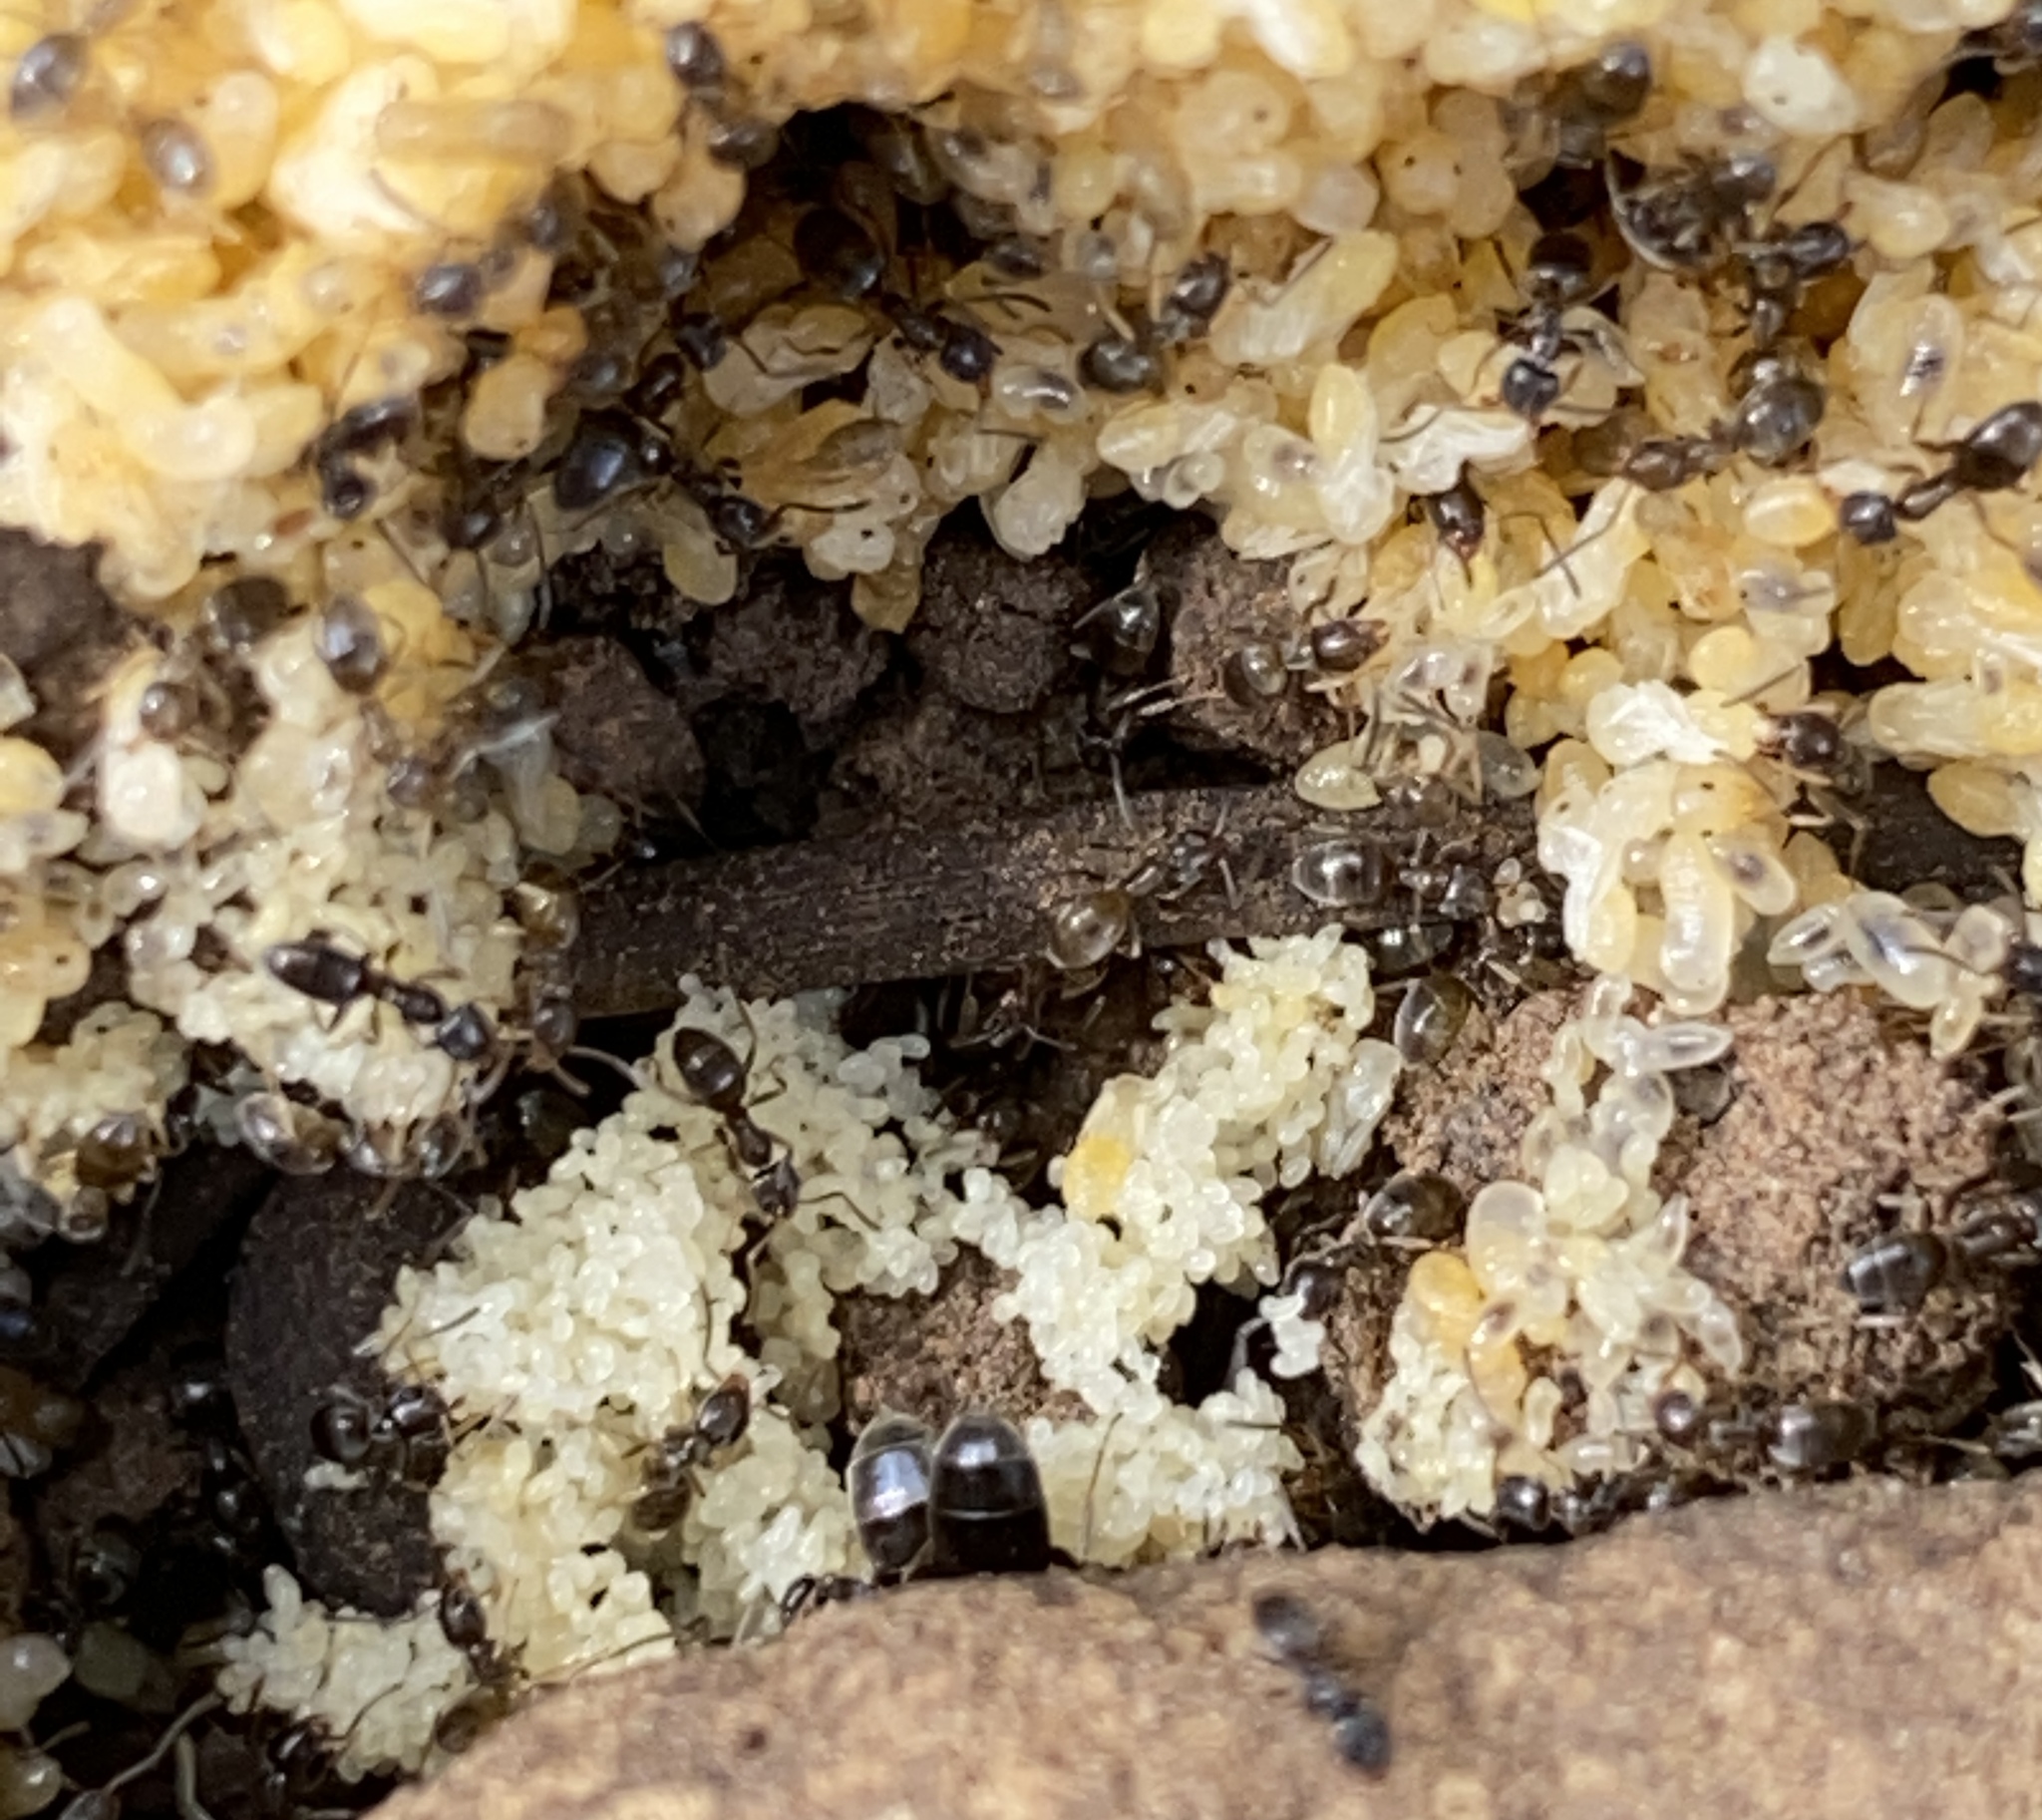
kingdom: Animalia
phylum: Arthropoda
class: Insecta
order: Hymenoptera
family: Formicidae
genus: Tapinoma
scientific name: Tapinoma sessile
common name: Odorous house ant
